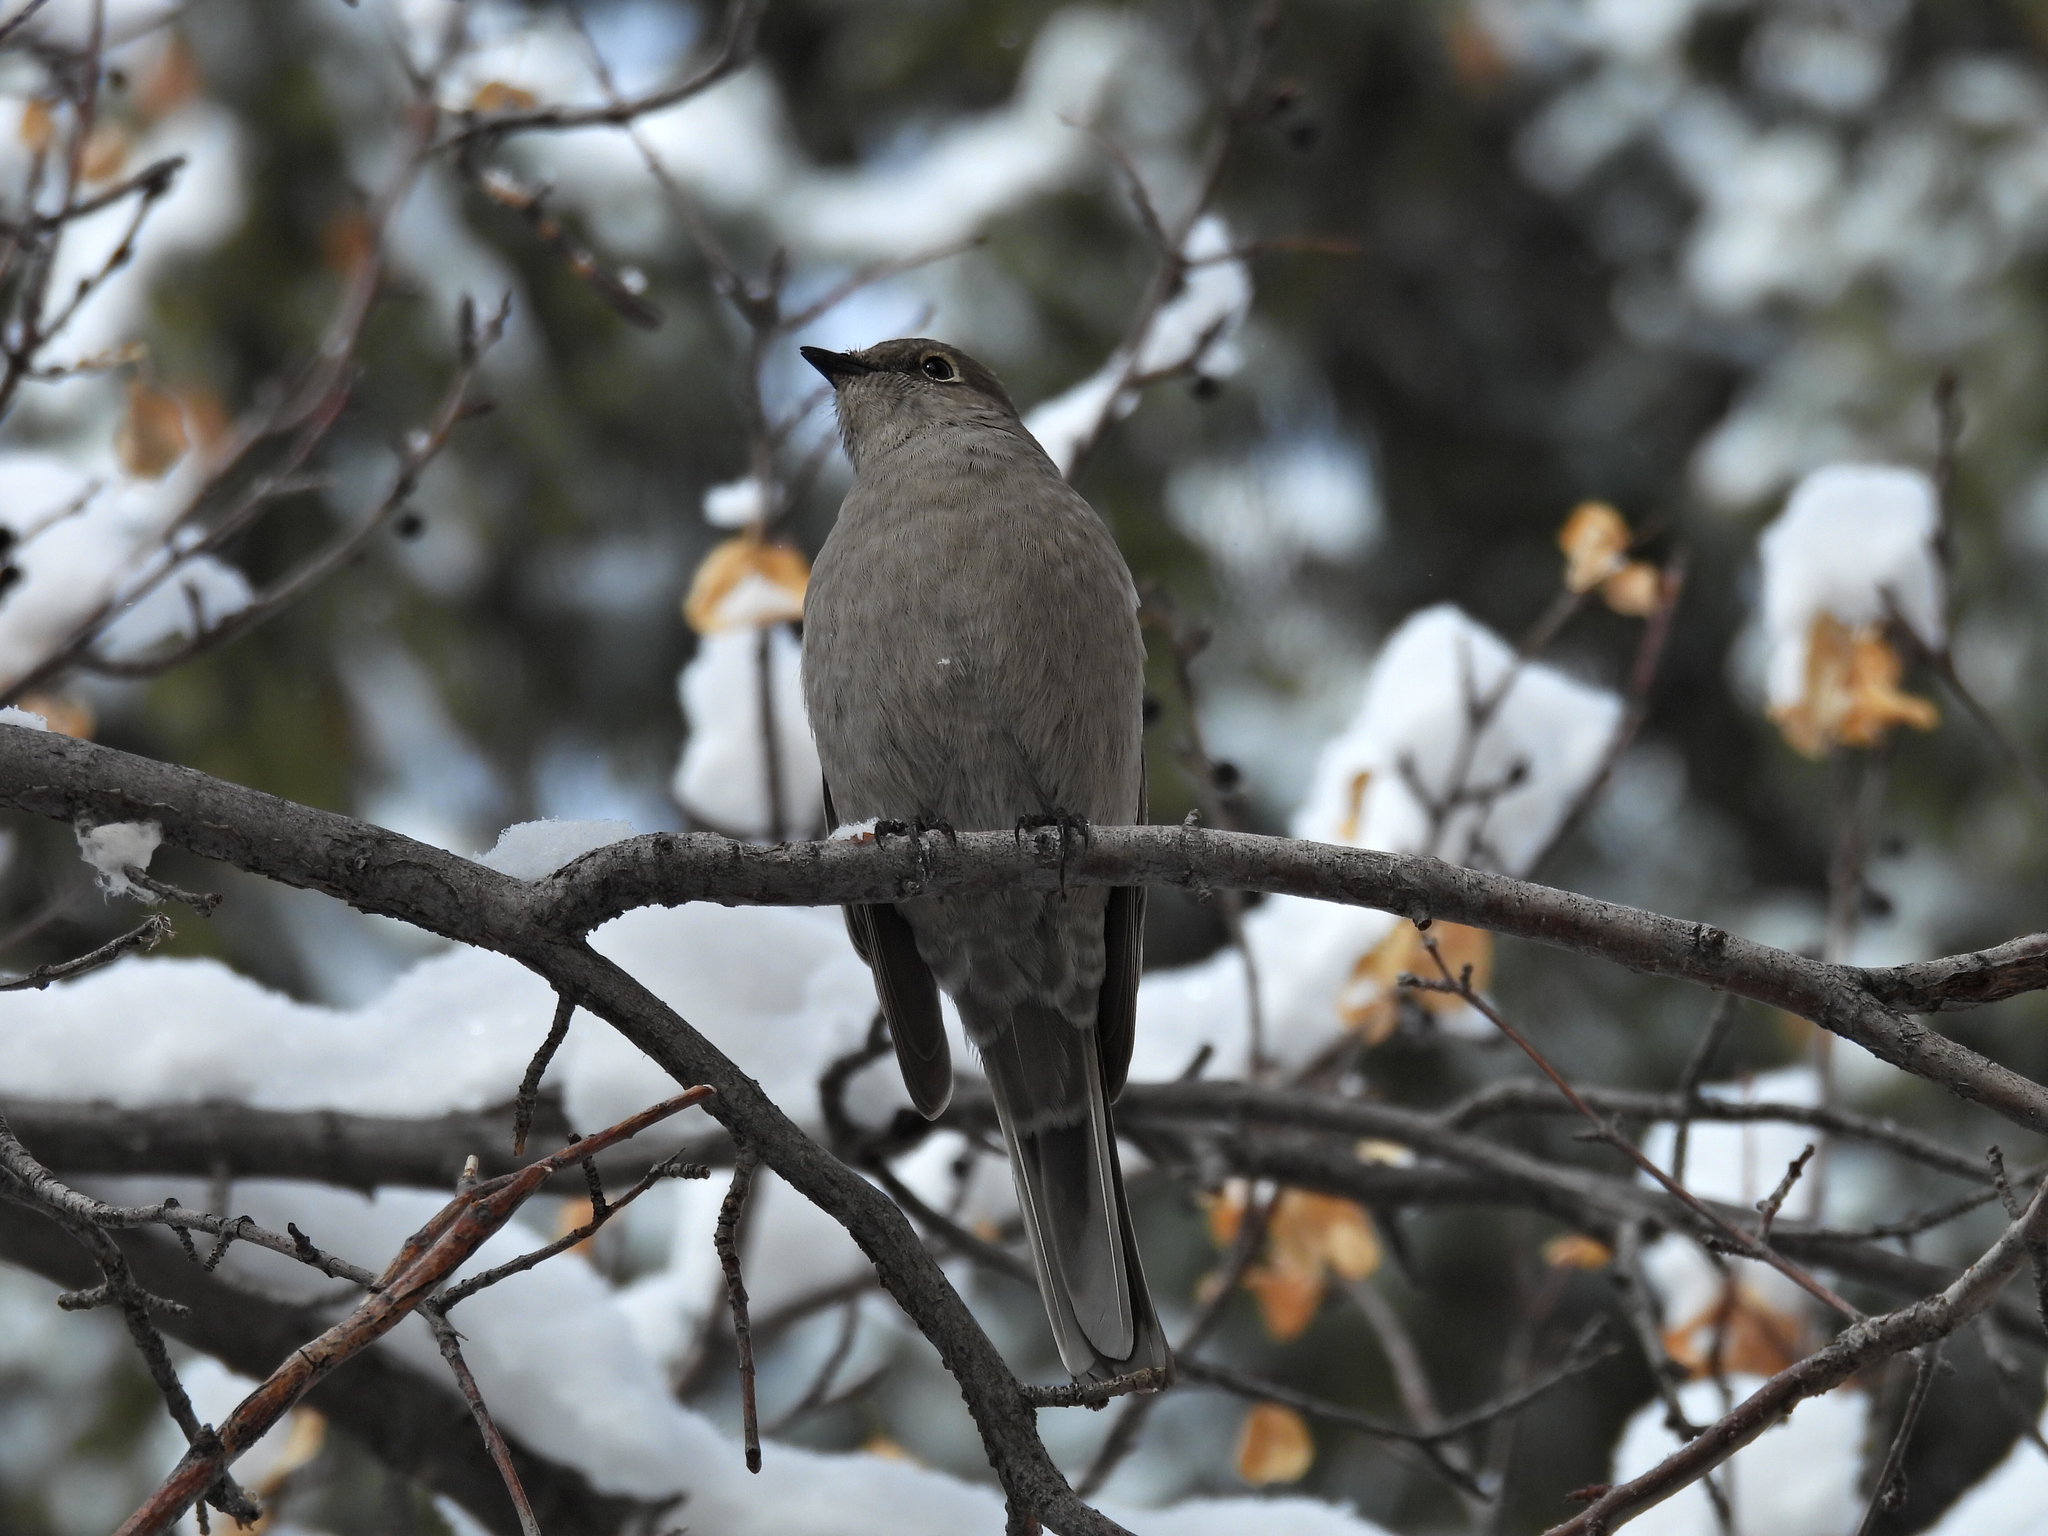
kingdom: Animalia
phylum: Chordata
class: Aves
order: Passeriformes
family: Turdidae
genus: Myadestes
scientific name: Myadestes townsendi
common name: Townsend's solitaire
